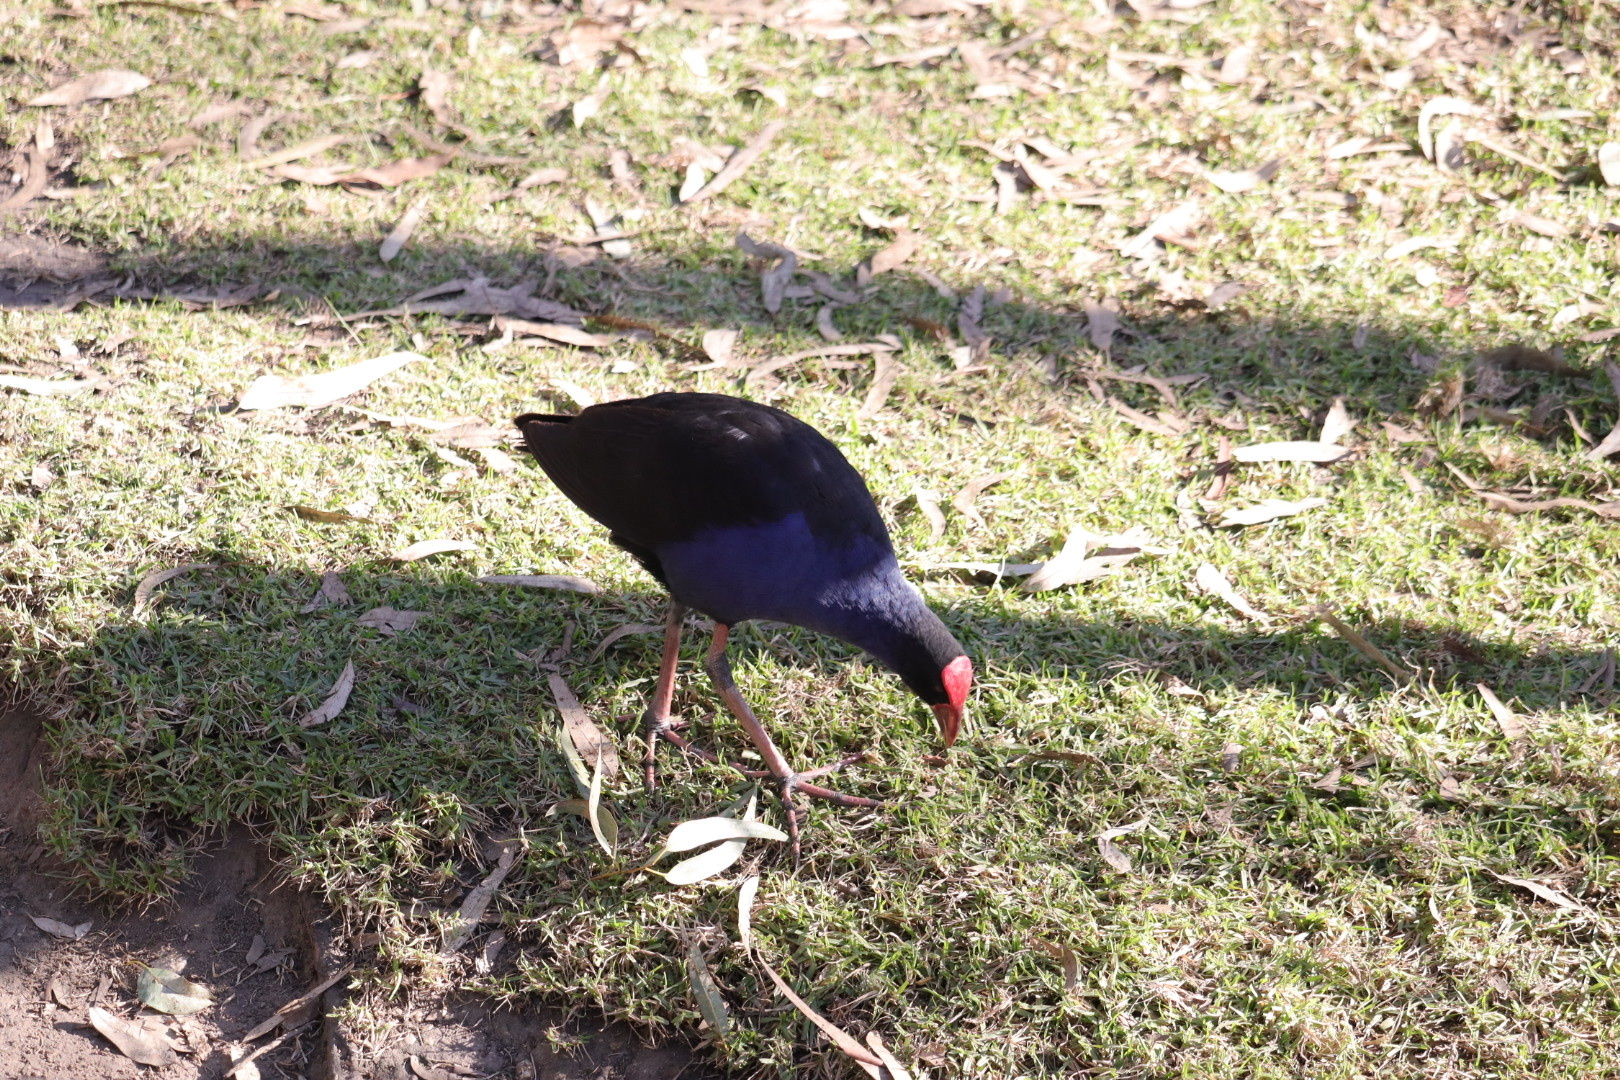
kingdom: Animalia
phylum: Chordata
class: Aves
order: Gruiformes
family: Rallidae
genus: Porphyrio
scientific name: Porphyrio melanotus
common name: Australasian swamphen
